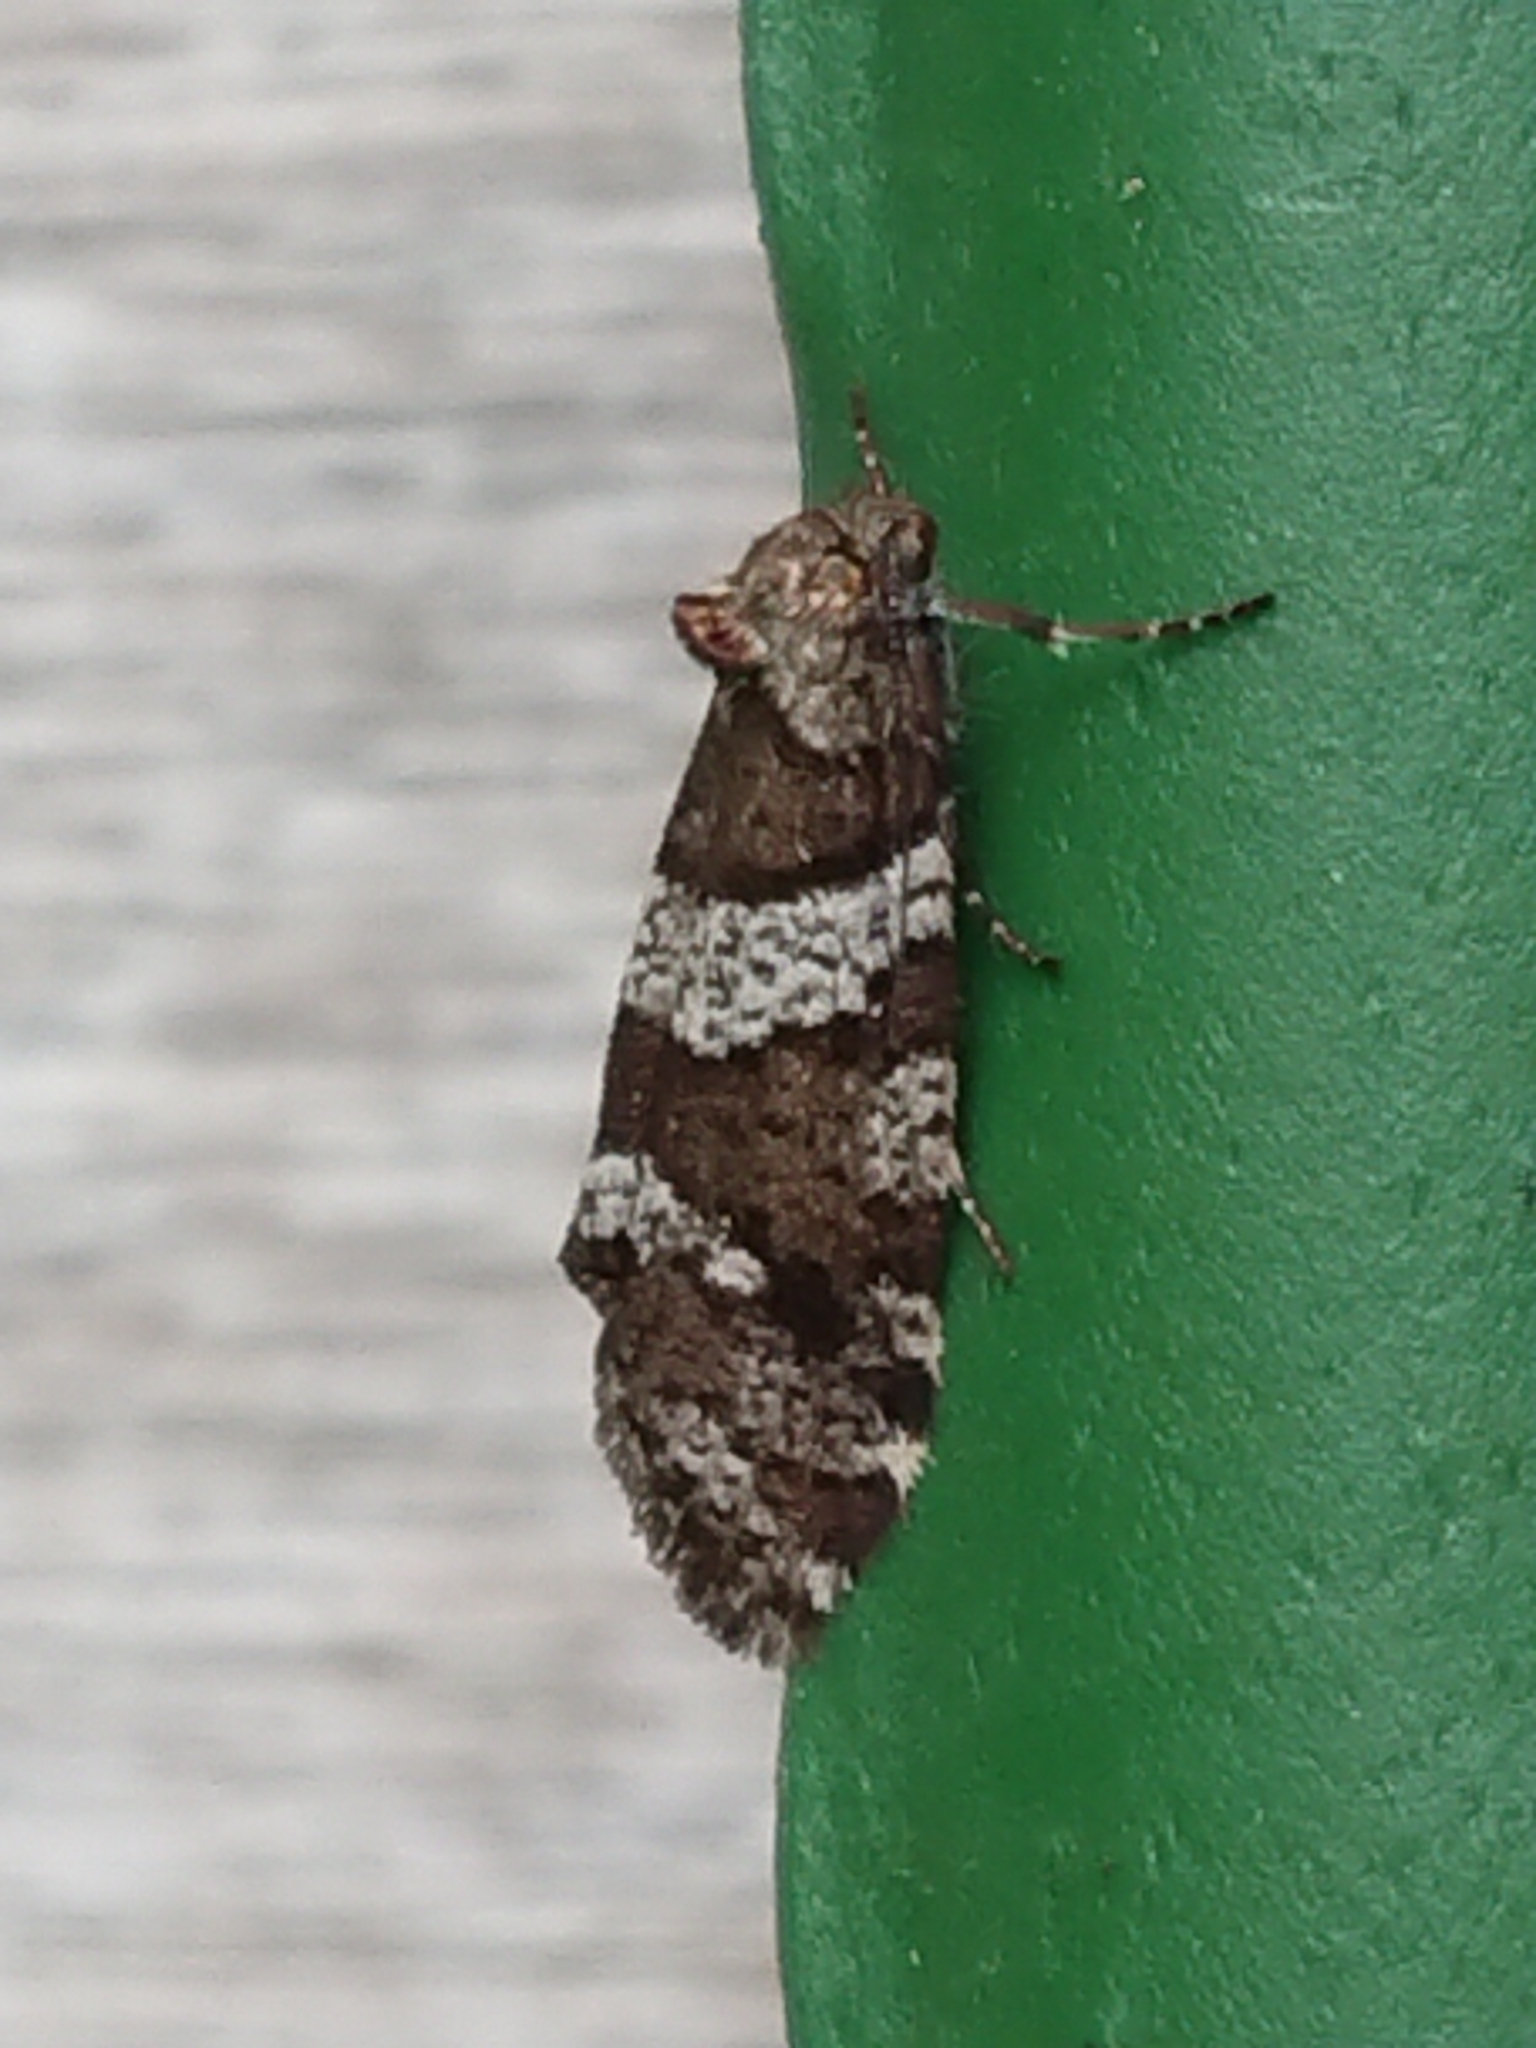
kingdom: Animalia
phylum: Arthropoda
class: Insecta
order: Lepidoptera
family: Psychidae
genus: Lepidoscia
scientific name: Lepidoscia heliochares
